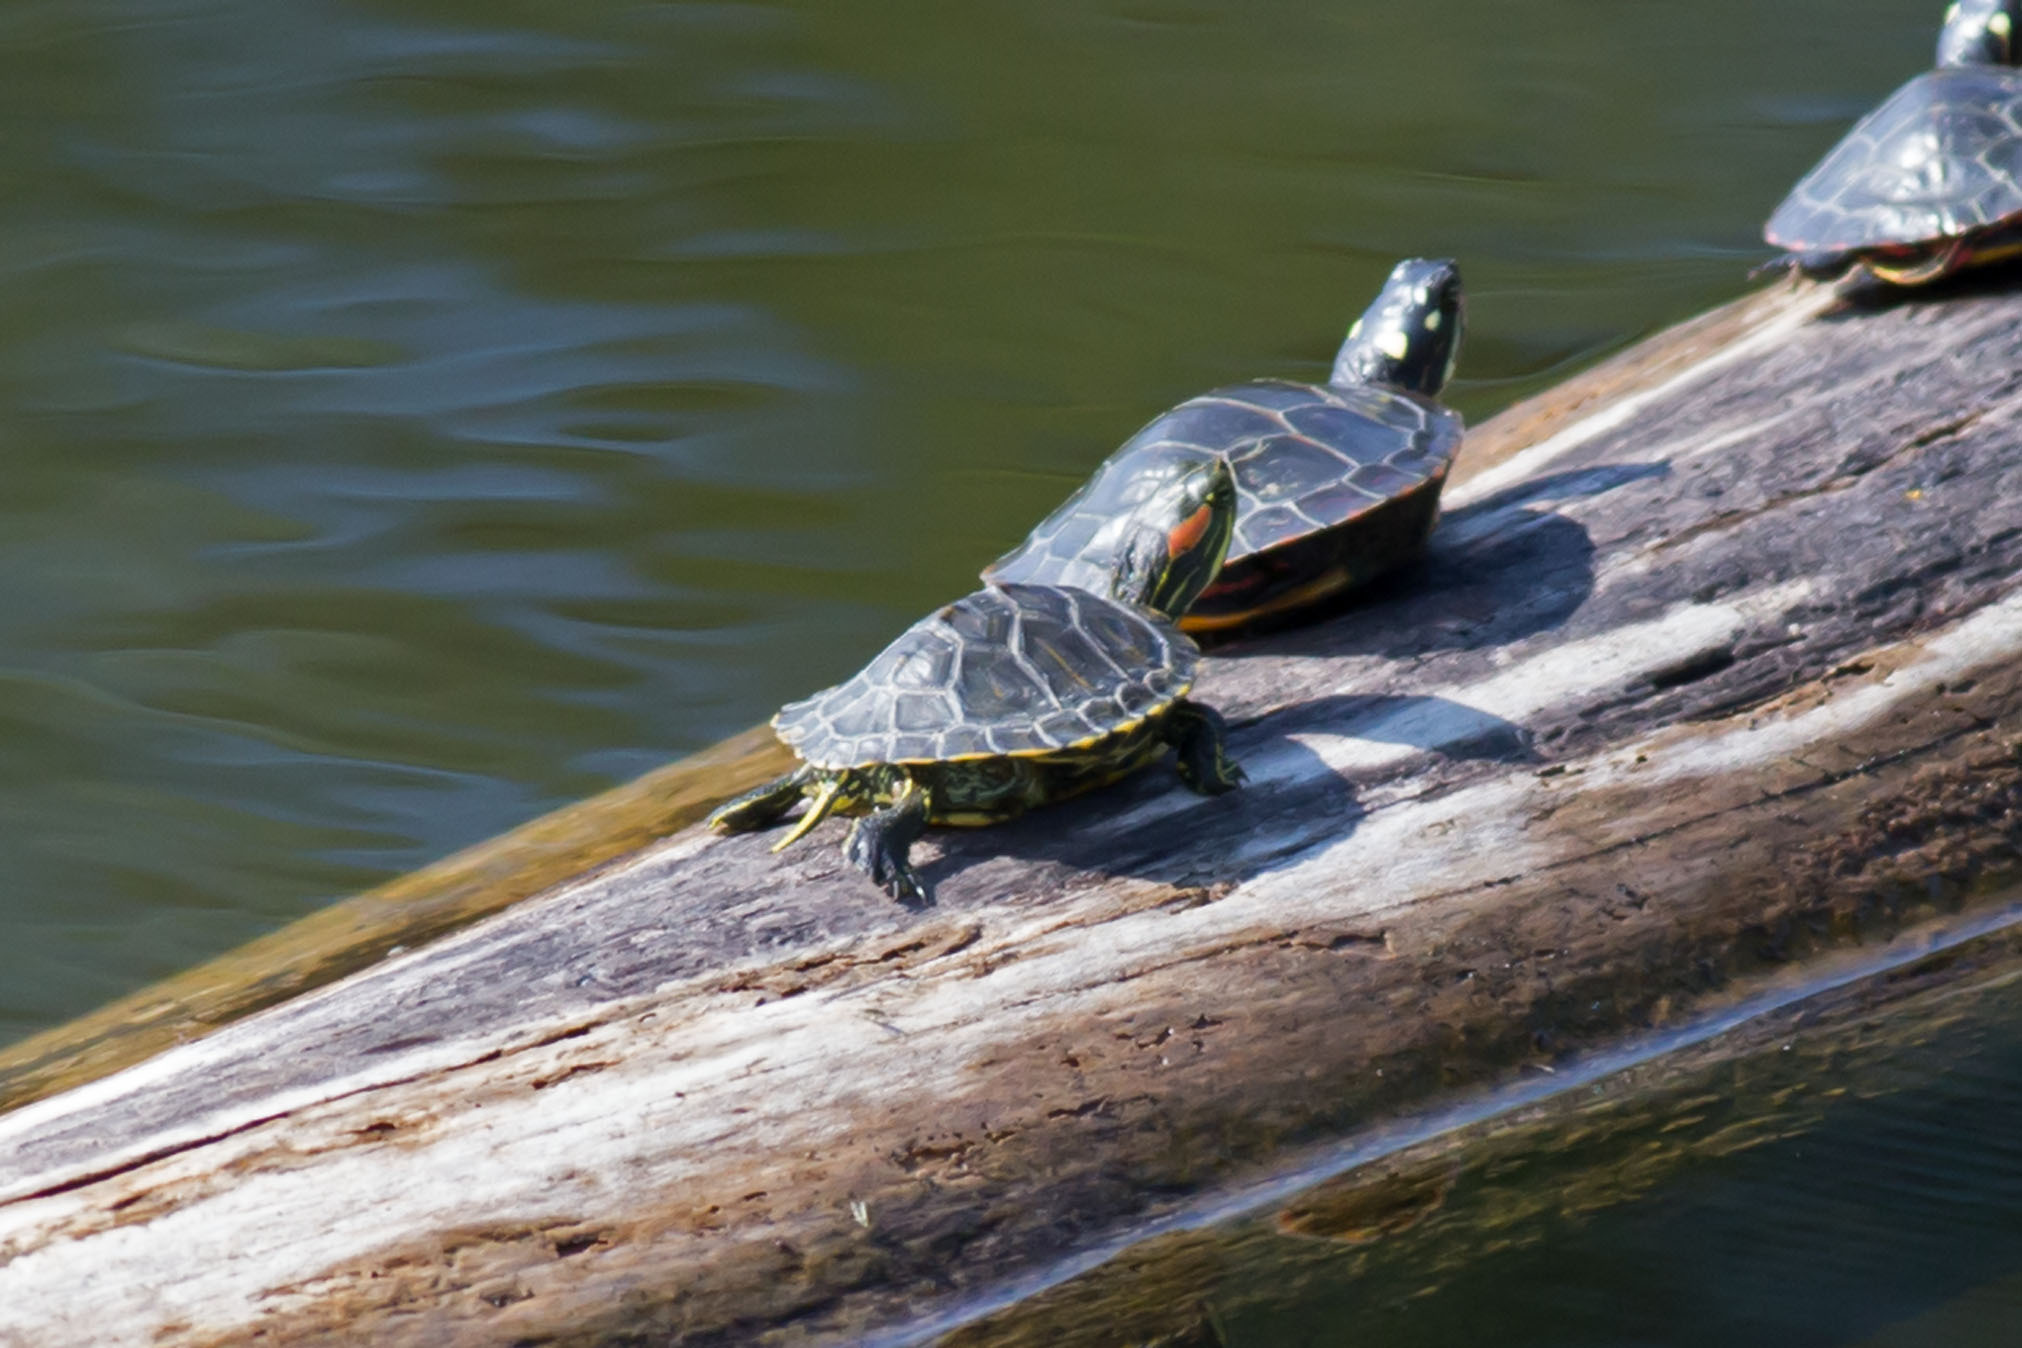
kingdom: Animalia
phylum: Chordata
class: Testudines
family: Emydidae
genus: Trachemys
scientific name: Trachemys scripta
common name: Slider
